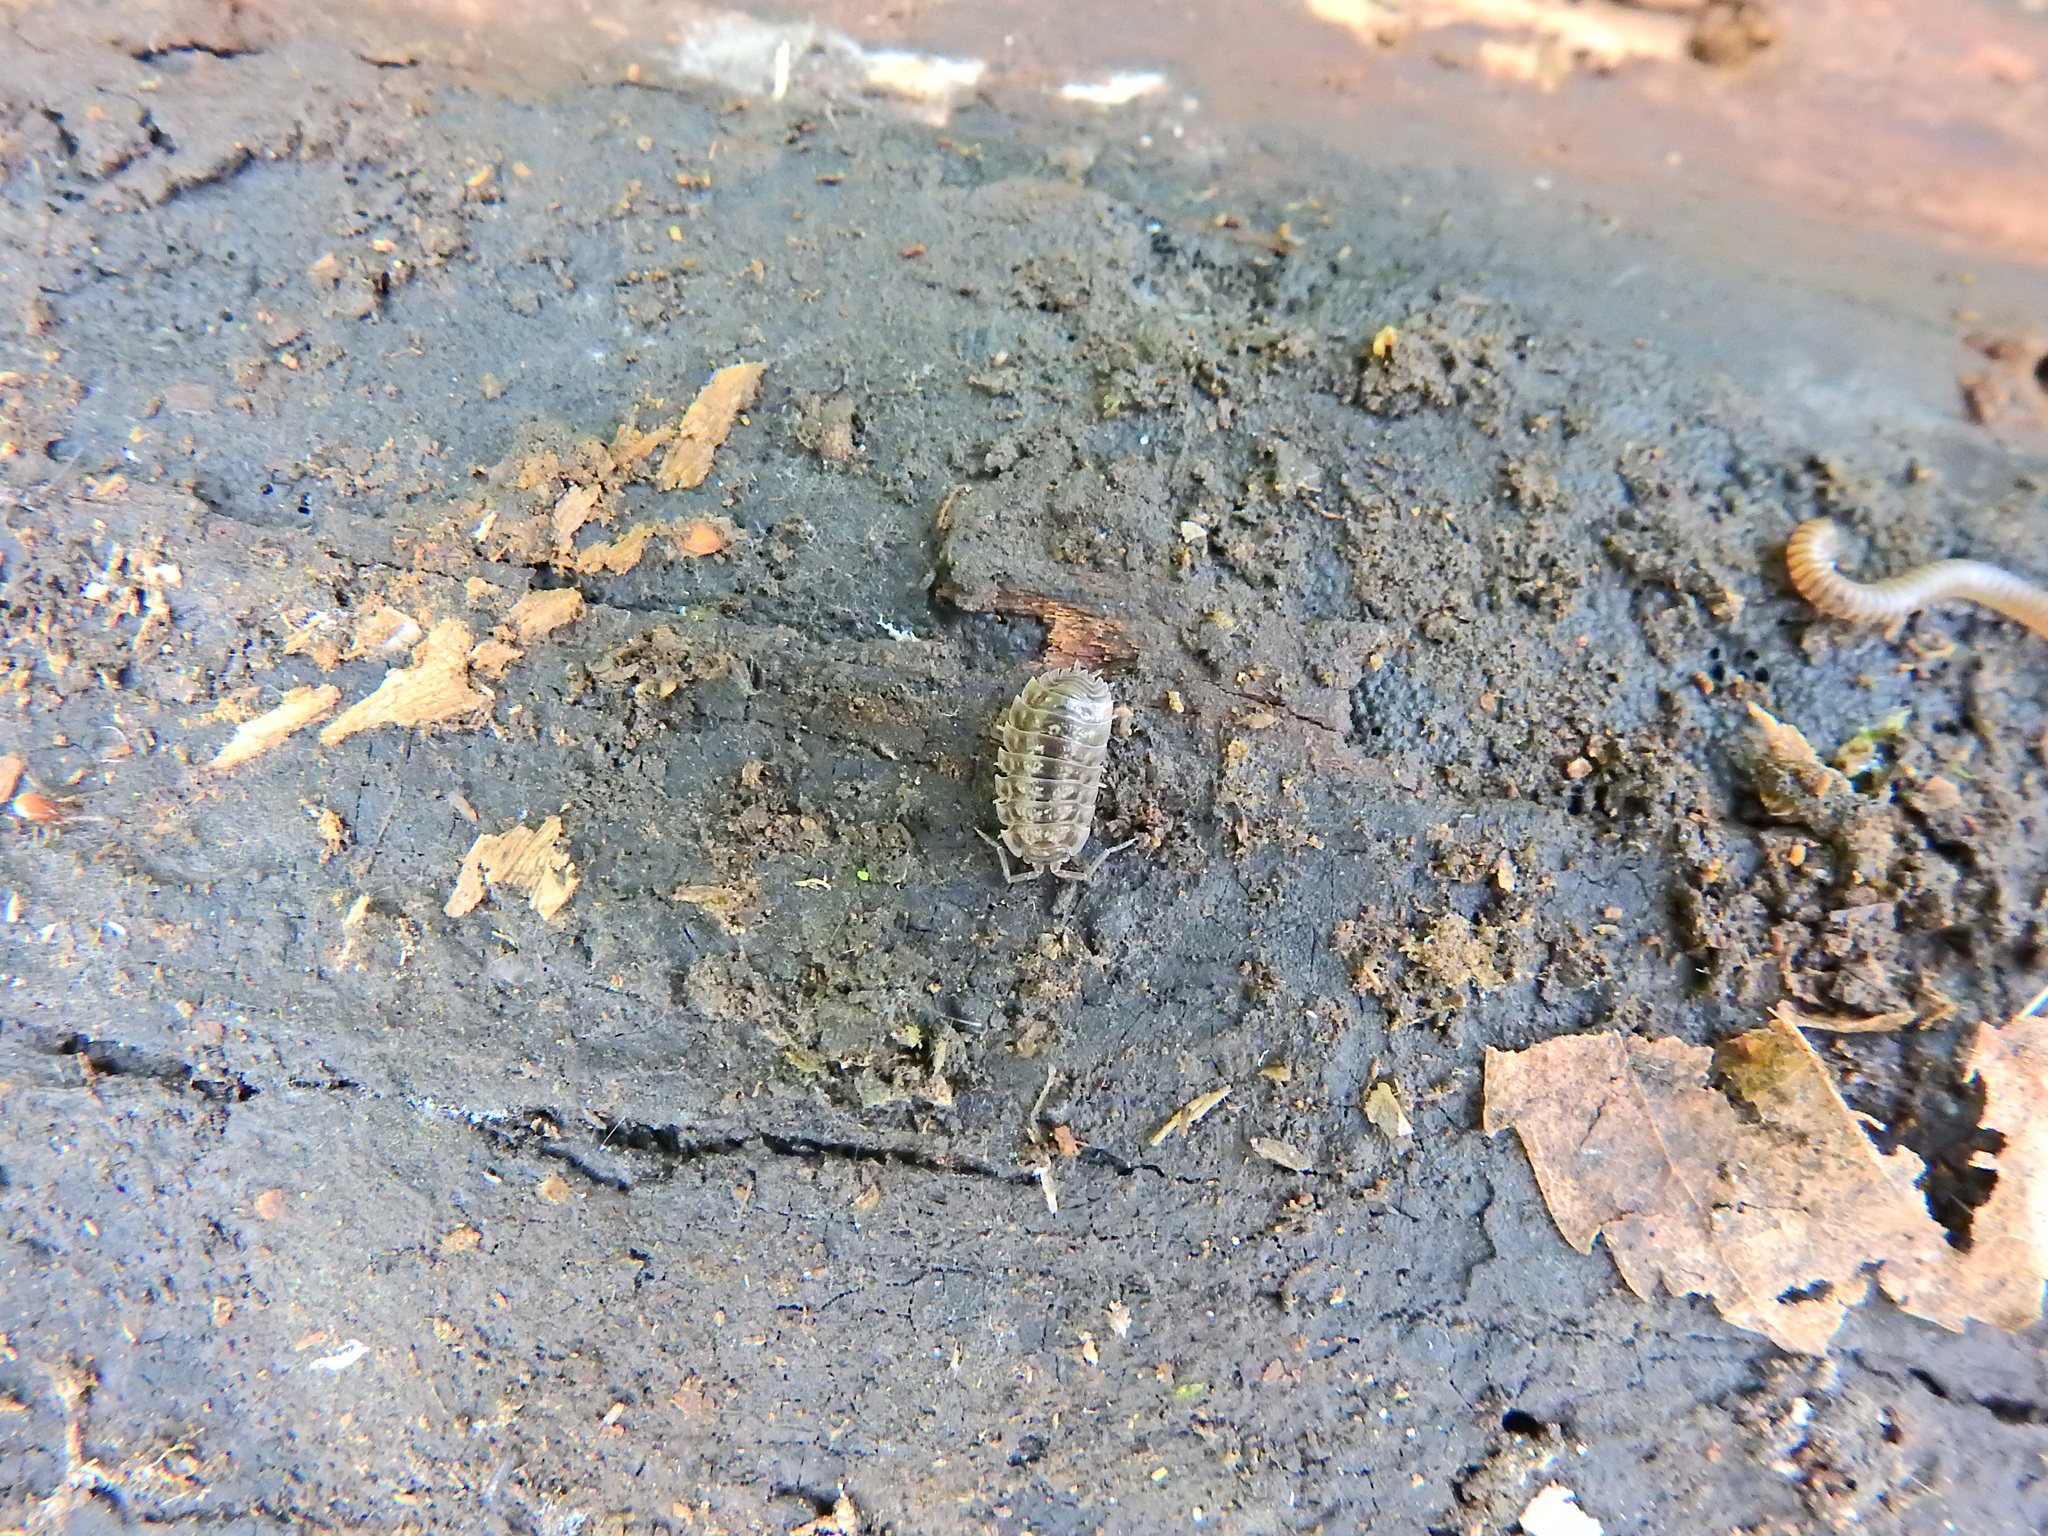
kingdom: Animalia
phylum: Arthropoda
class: Malacostraca
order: Isopoda
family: Oniscidae
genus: Oniscus
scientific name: Oniscus asellus
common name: Common shiny woodlouse
